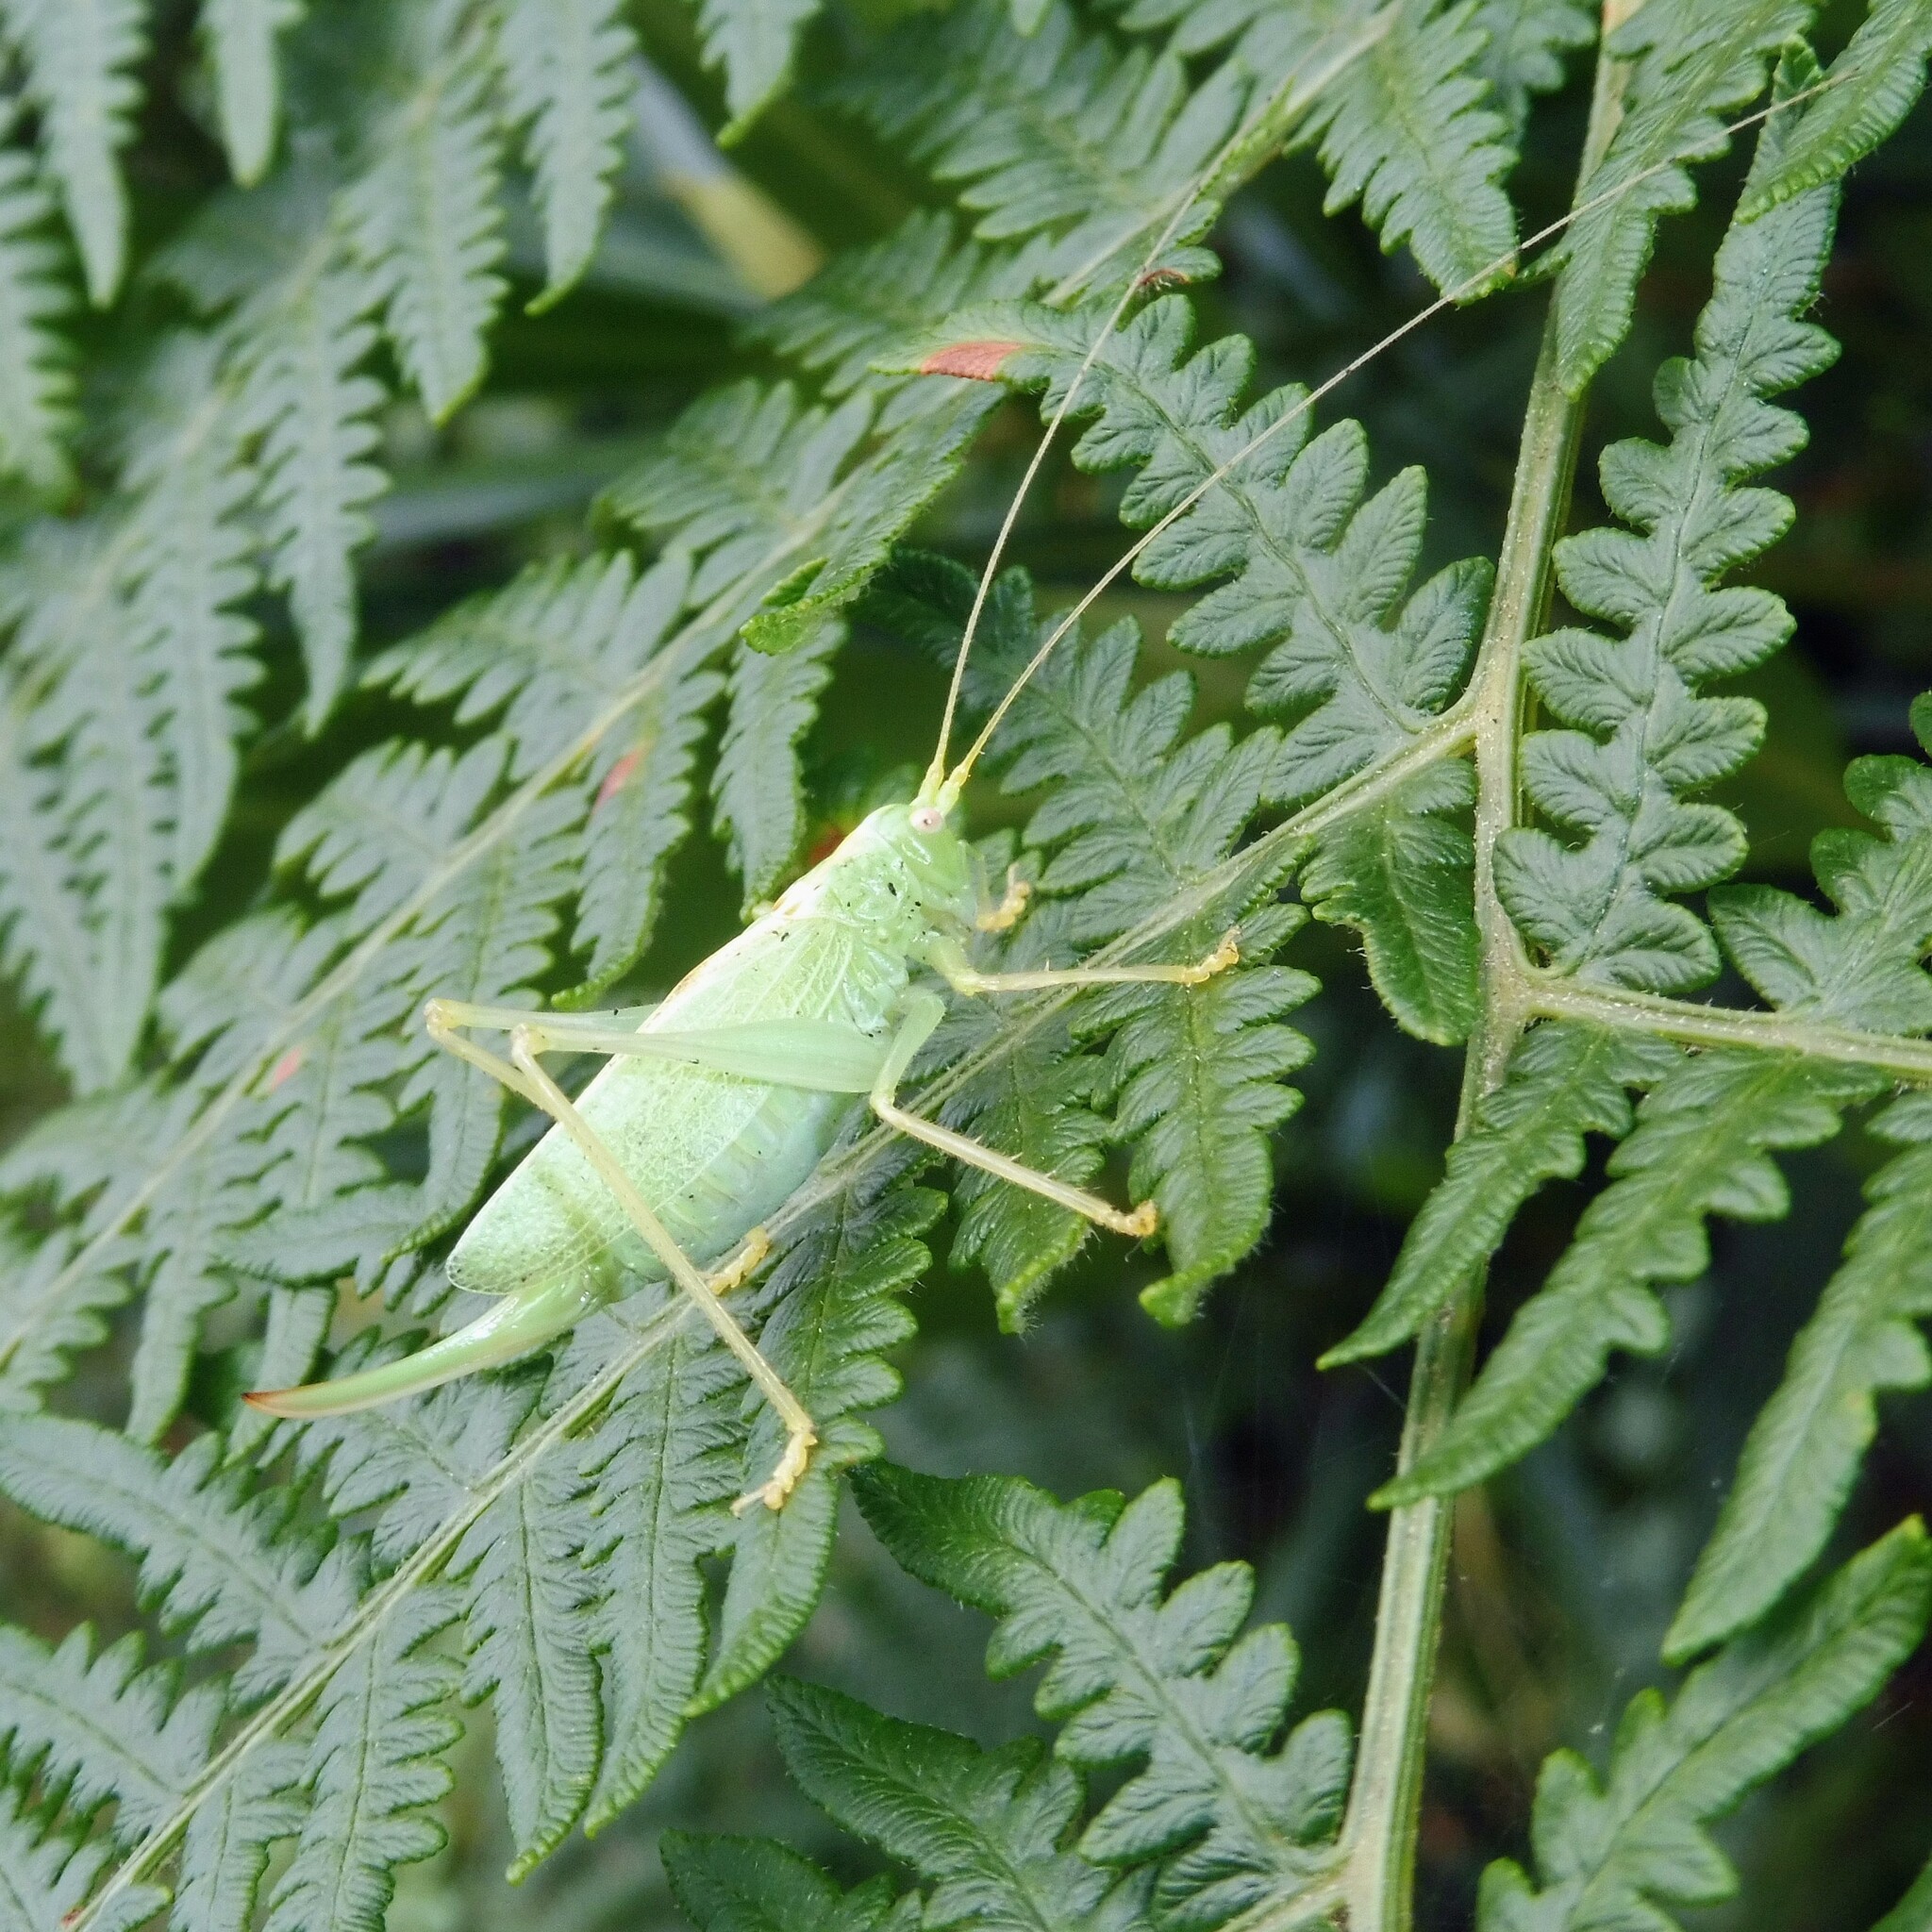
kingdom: Animalia
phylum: Arthropoda
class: Insecta
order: Orthoptera
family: Tettigoniidae
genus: Meconema
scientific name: Meconema thalassinum
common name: Oak bush-cricket
